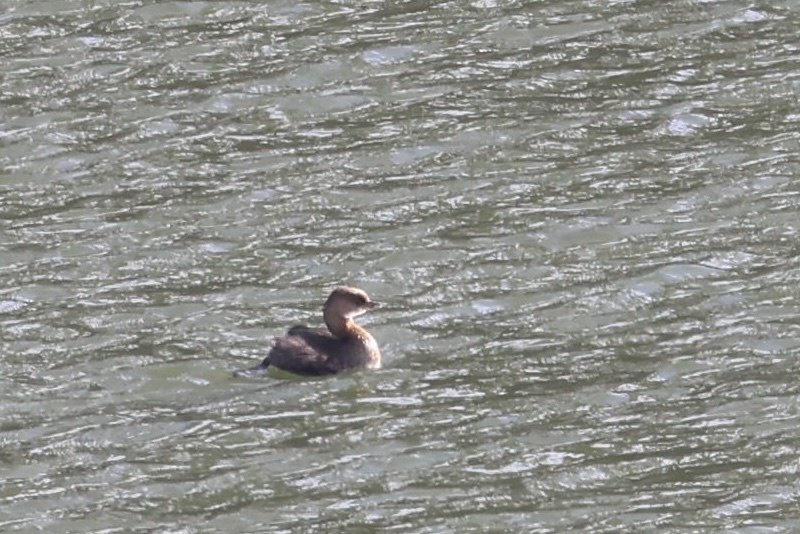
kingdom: Animalia
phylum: Chordata
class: Aves
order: Podicipediformes
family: Podicipedidae
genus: Podilymbus
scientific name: Podilymbus podiceps
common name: Pied-billed grebe
